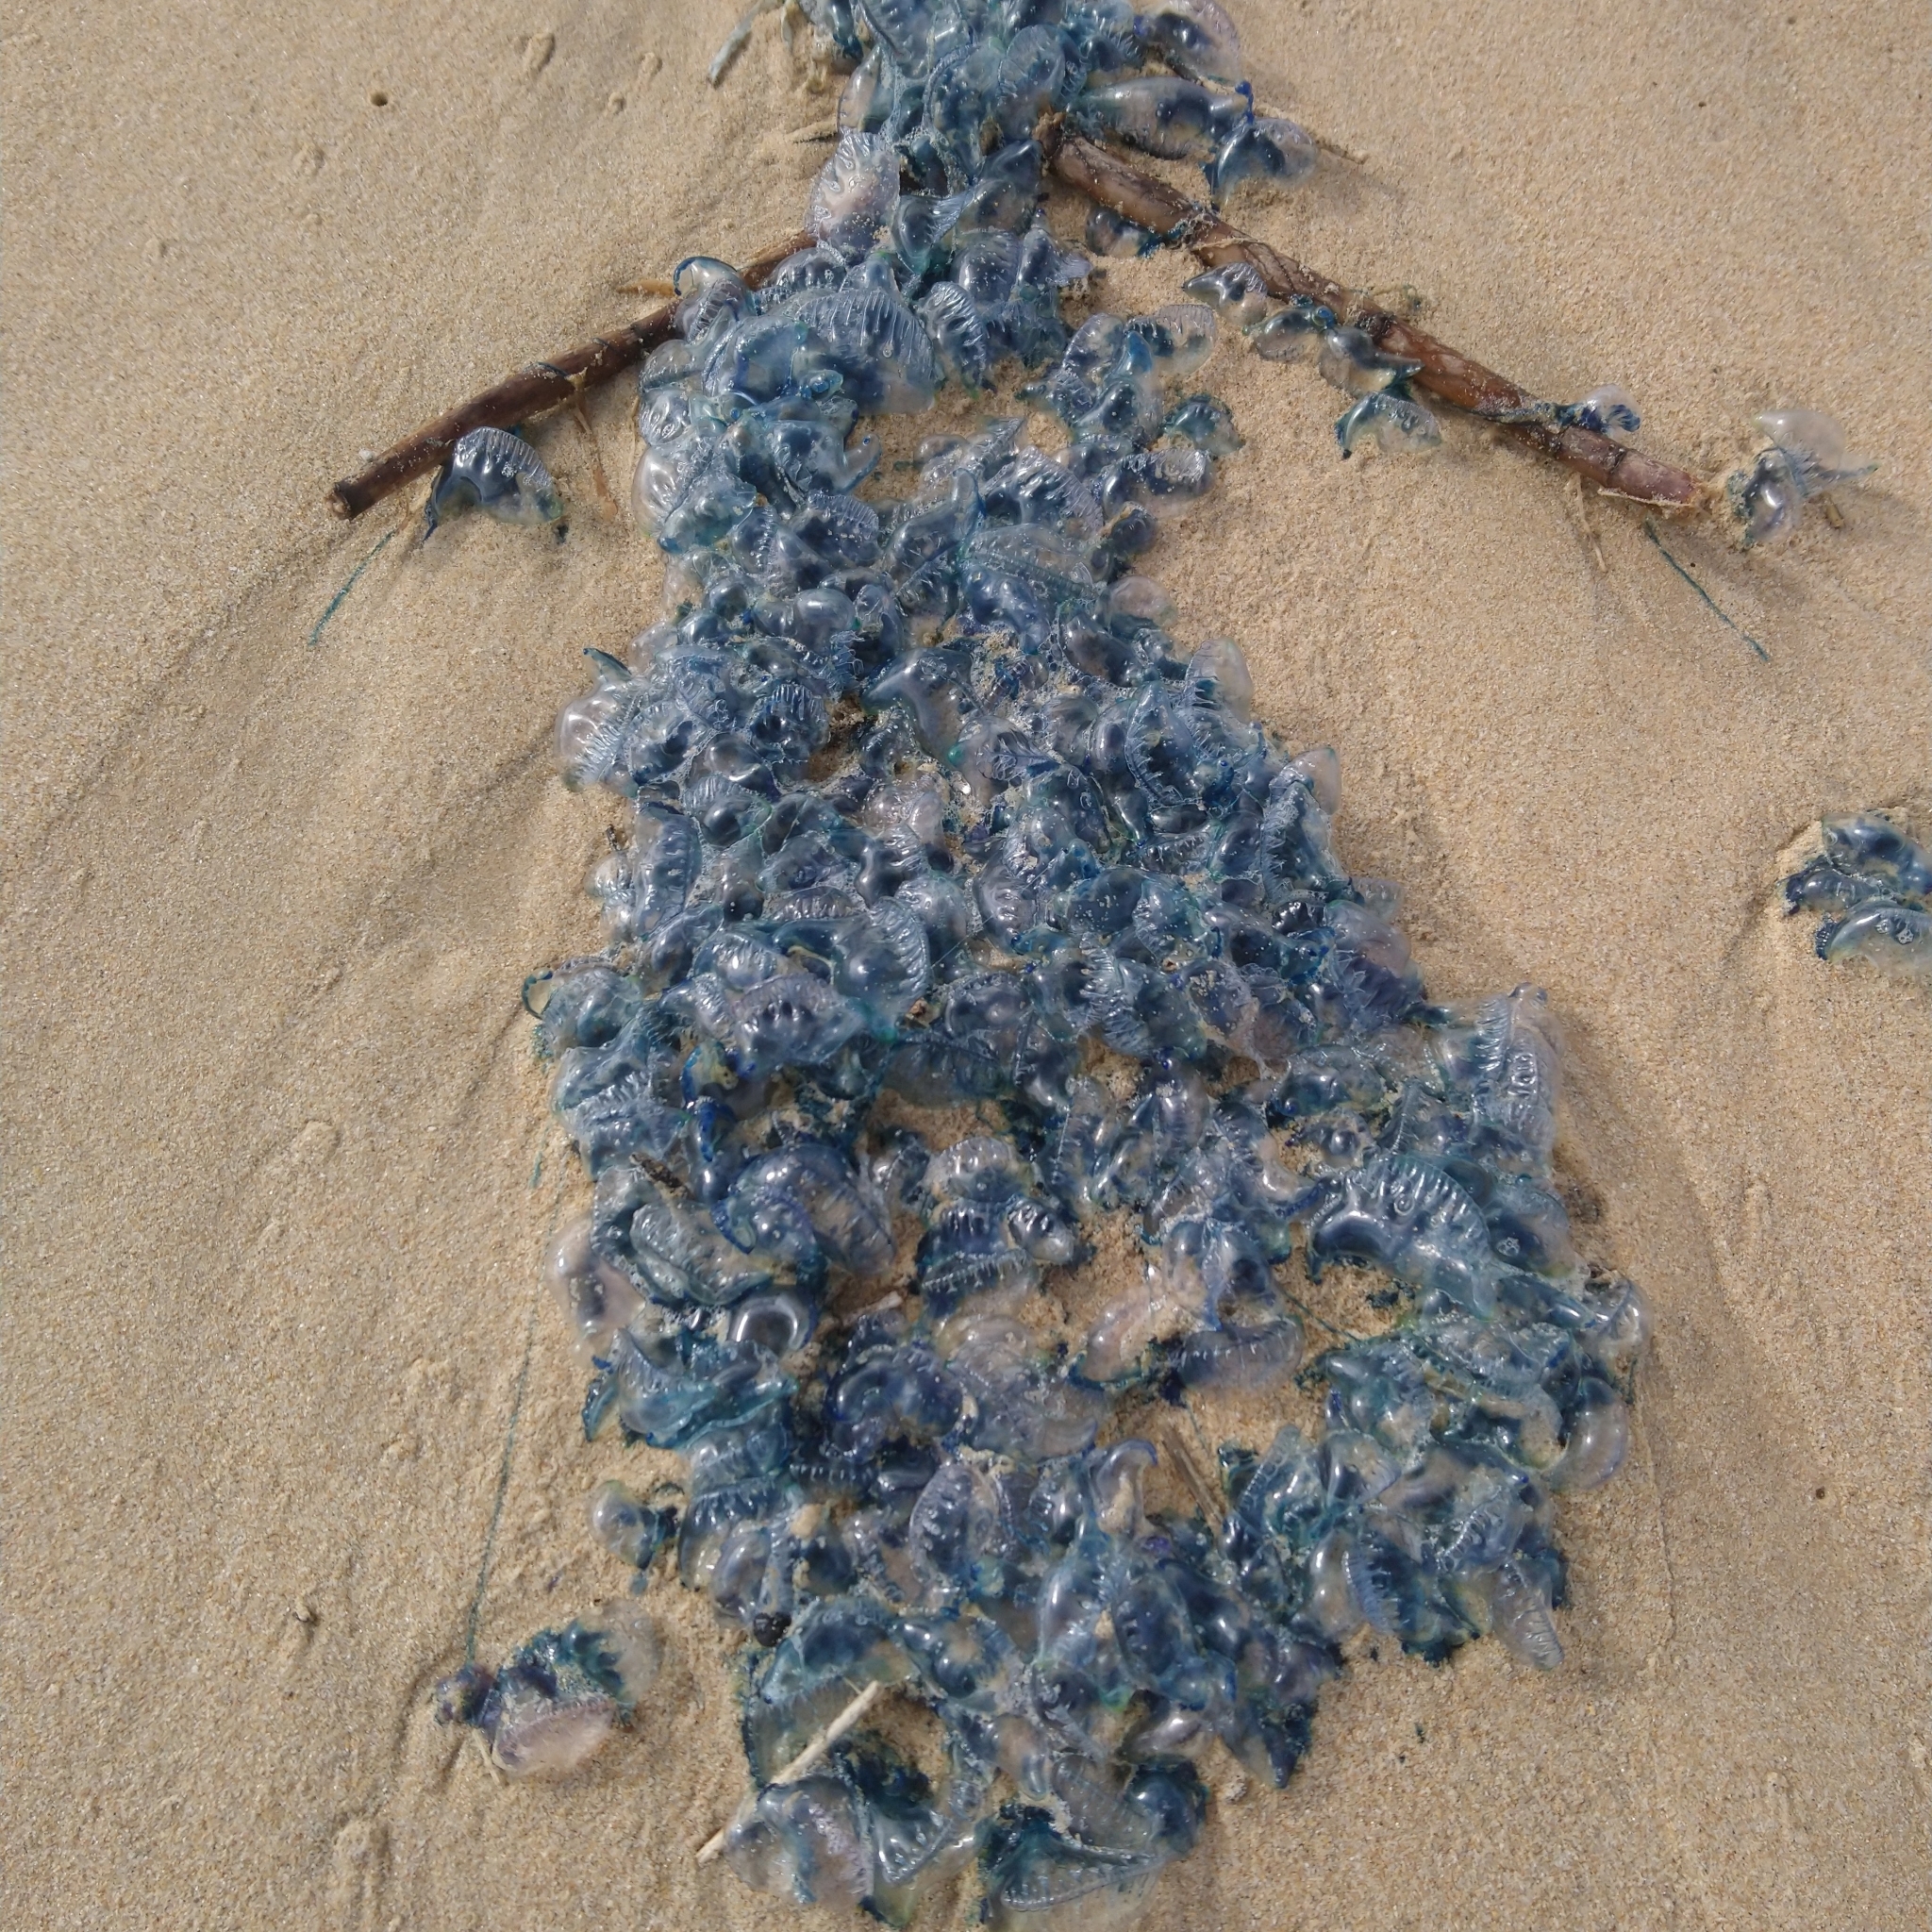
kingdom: Animalia
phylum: Cnidaria
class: Hydrozoa
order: Siphonophorae
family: Physaliidae
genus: Physalia
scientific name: Physalia physalis
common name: Portuguese man-of-war
